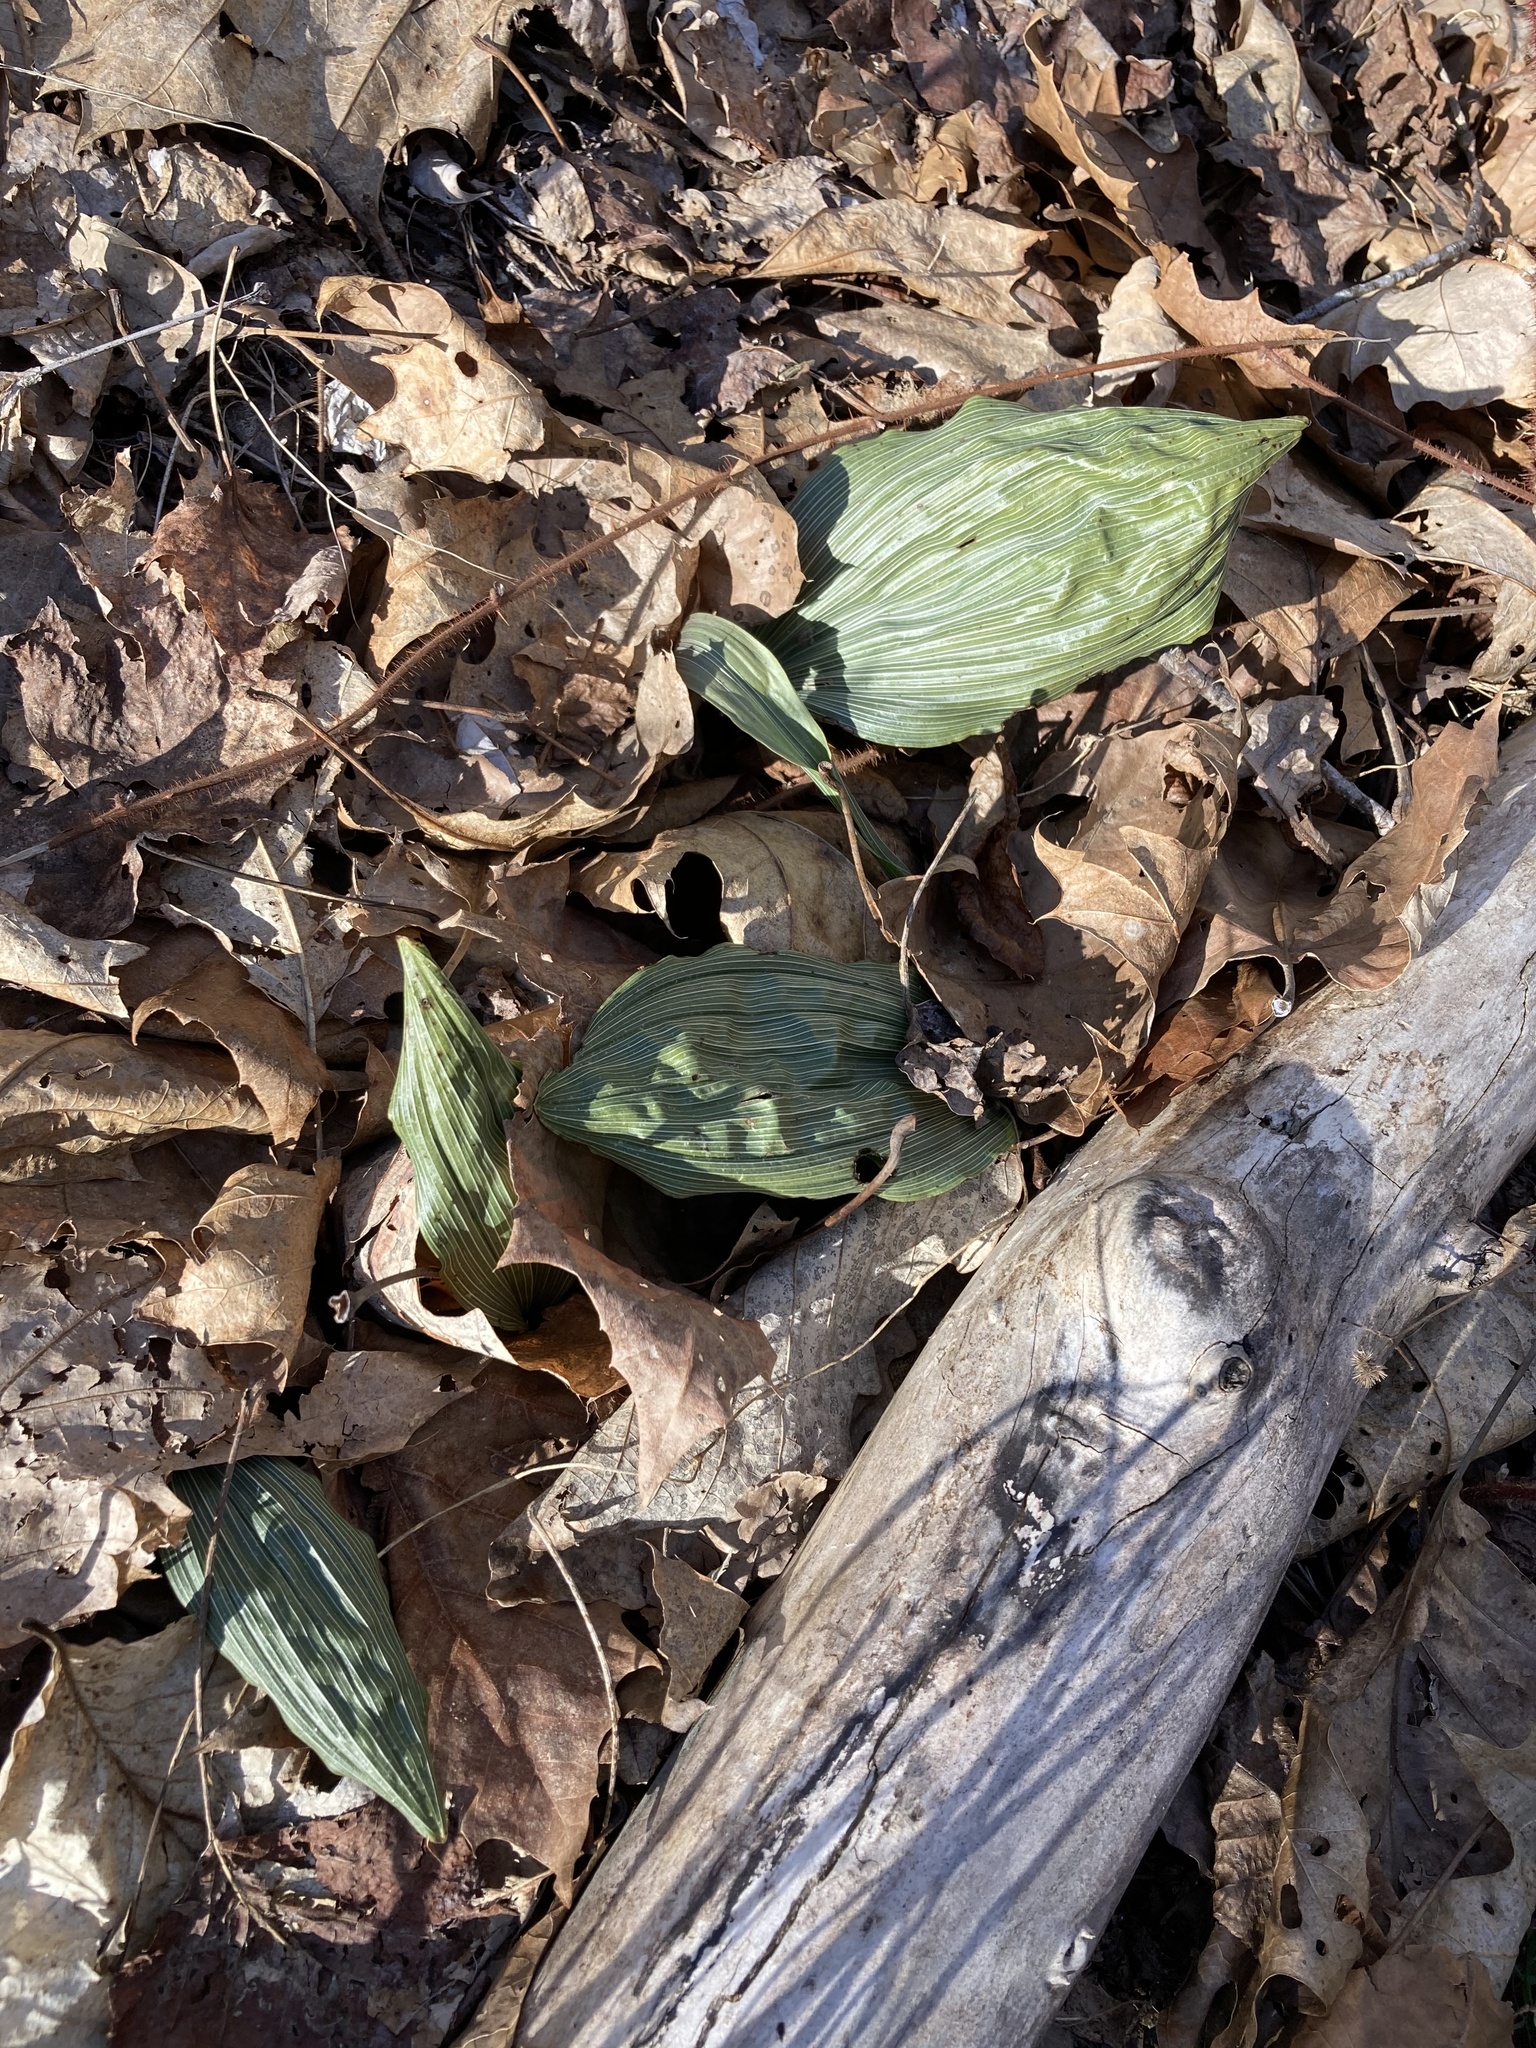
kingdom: Plantae
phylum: Tracheophyta
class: Liliopsida
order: Asparagales
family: Orchidaceae
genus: Aplectrum
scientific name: Aplectrum hyemale
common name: Adam-and-eve
